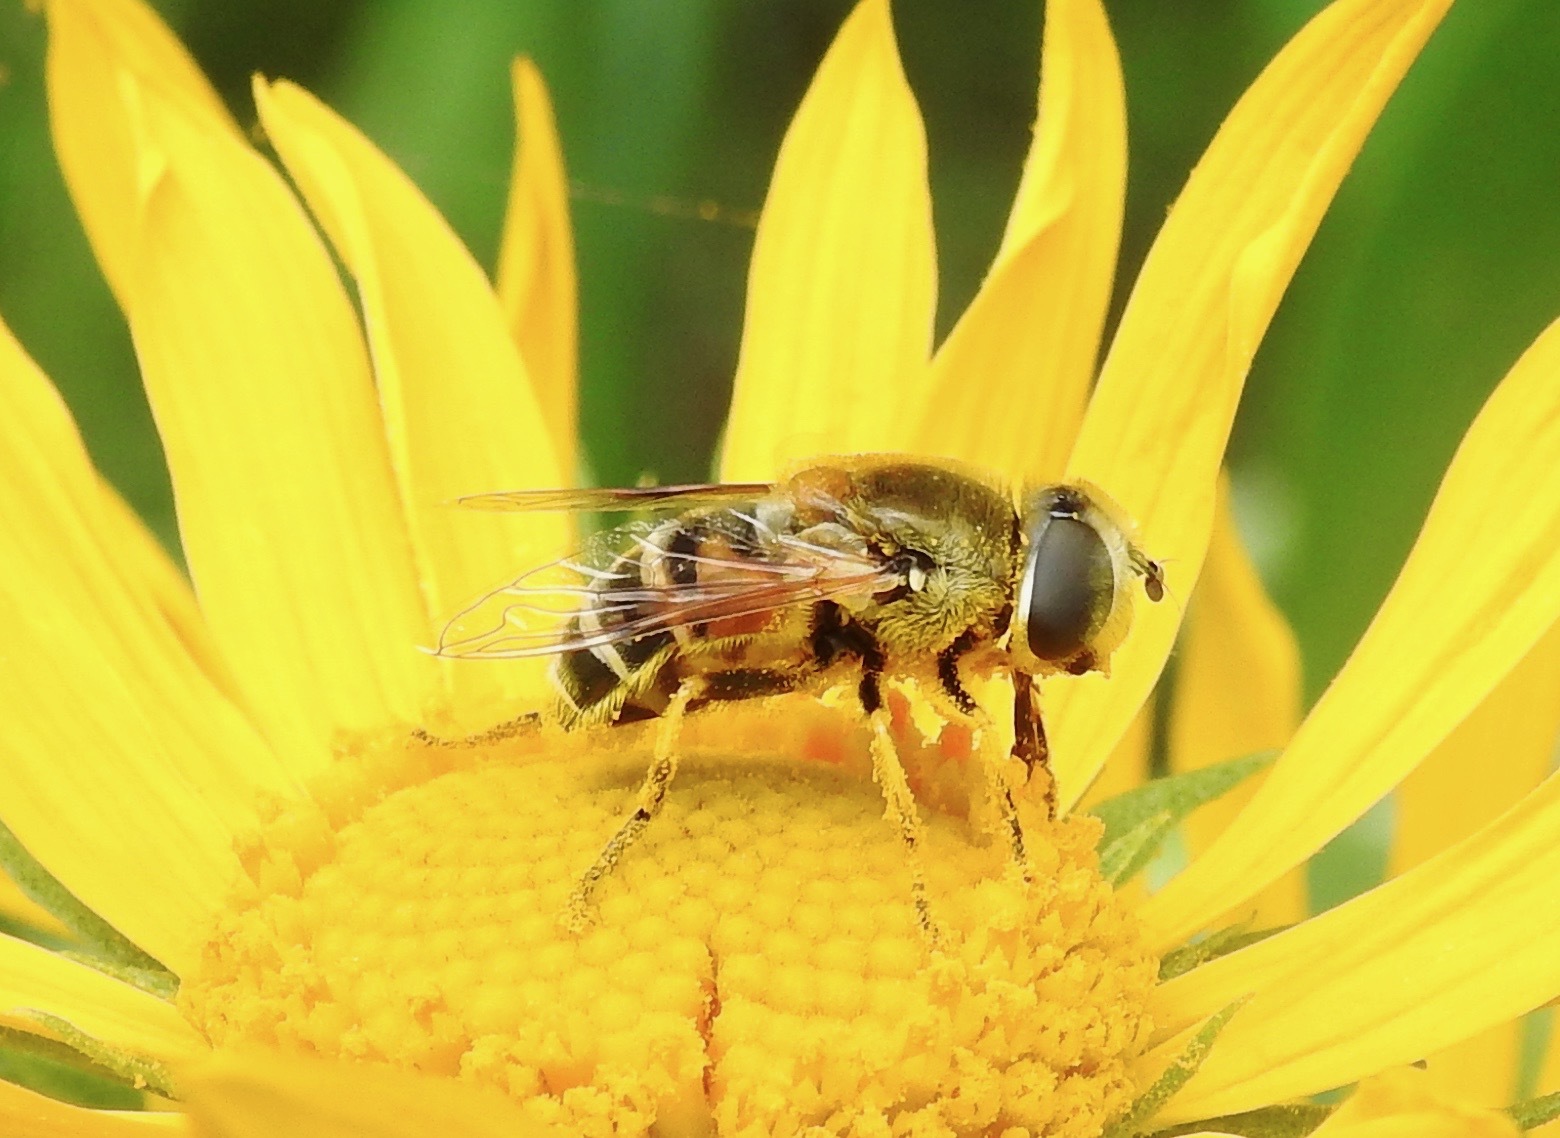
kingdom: Animalia
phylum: Arthropoda
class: Insecta
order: Diptera
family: Syrphidae
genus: Eristalis
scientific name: Eristalis stipator
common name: Yellow-shouldered drone fly
